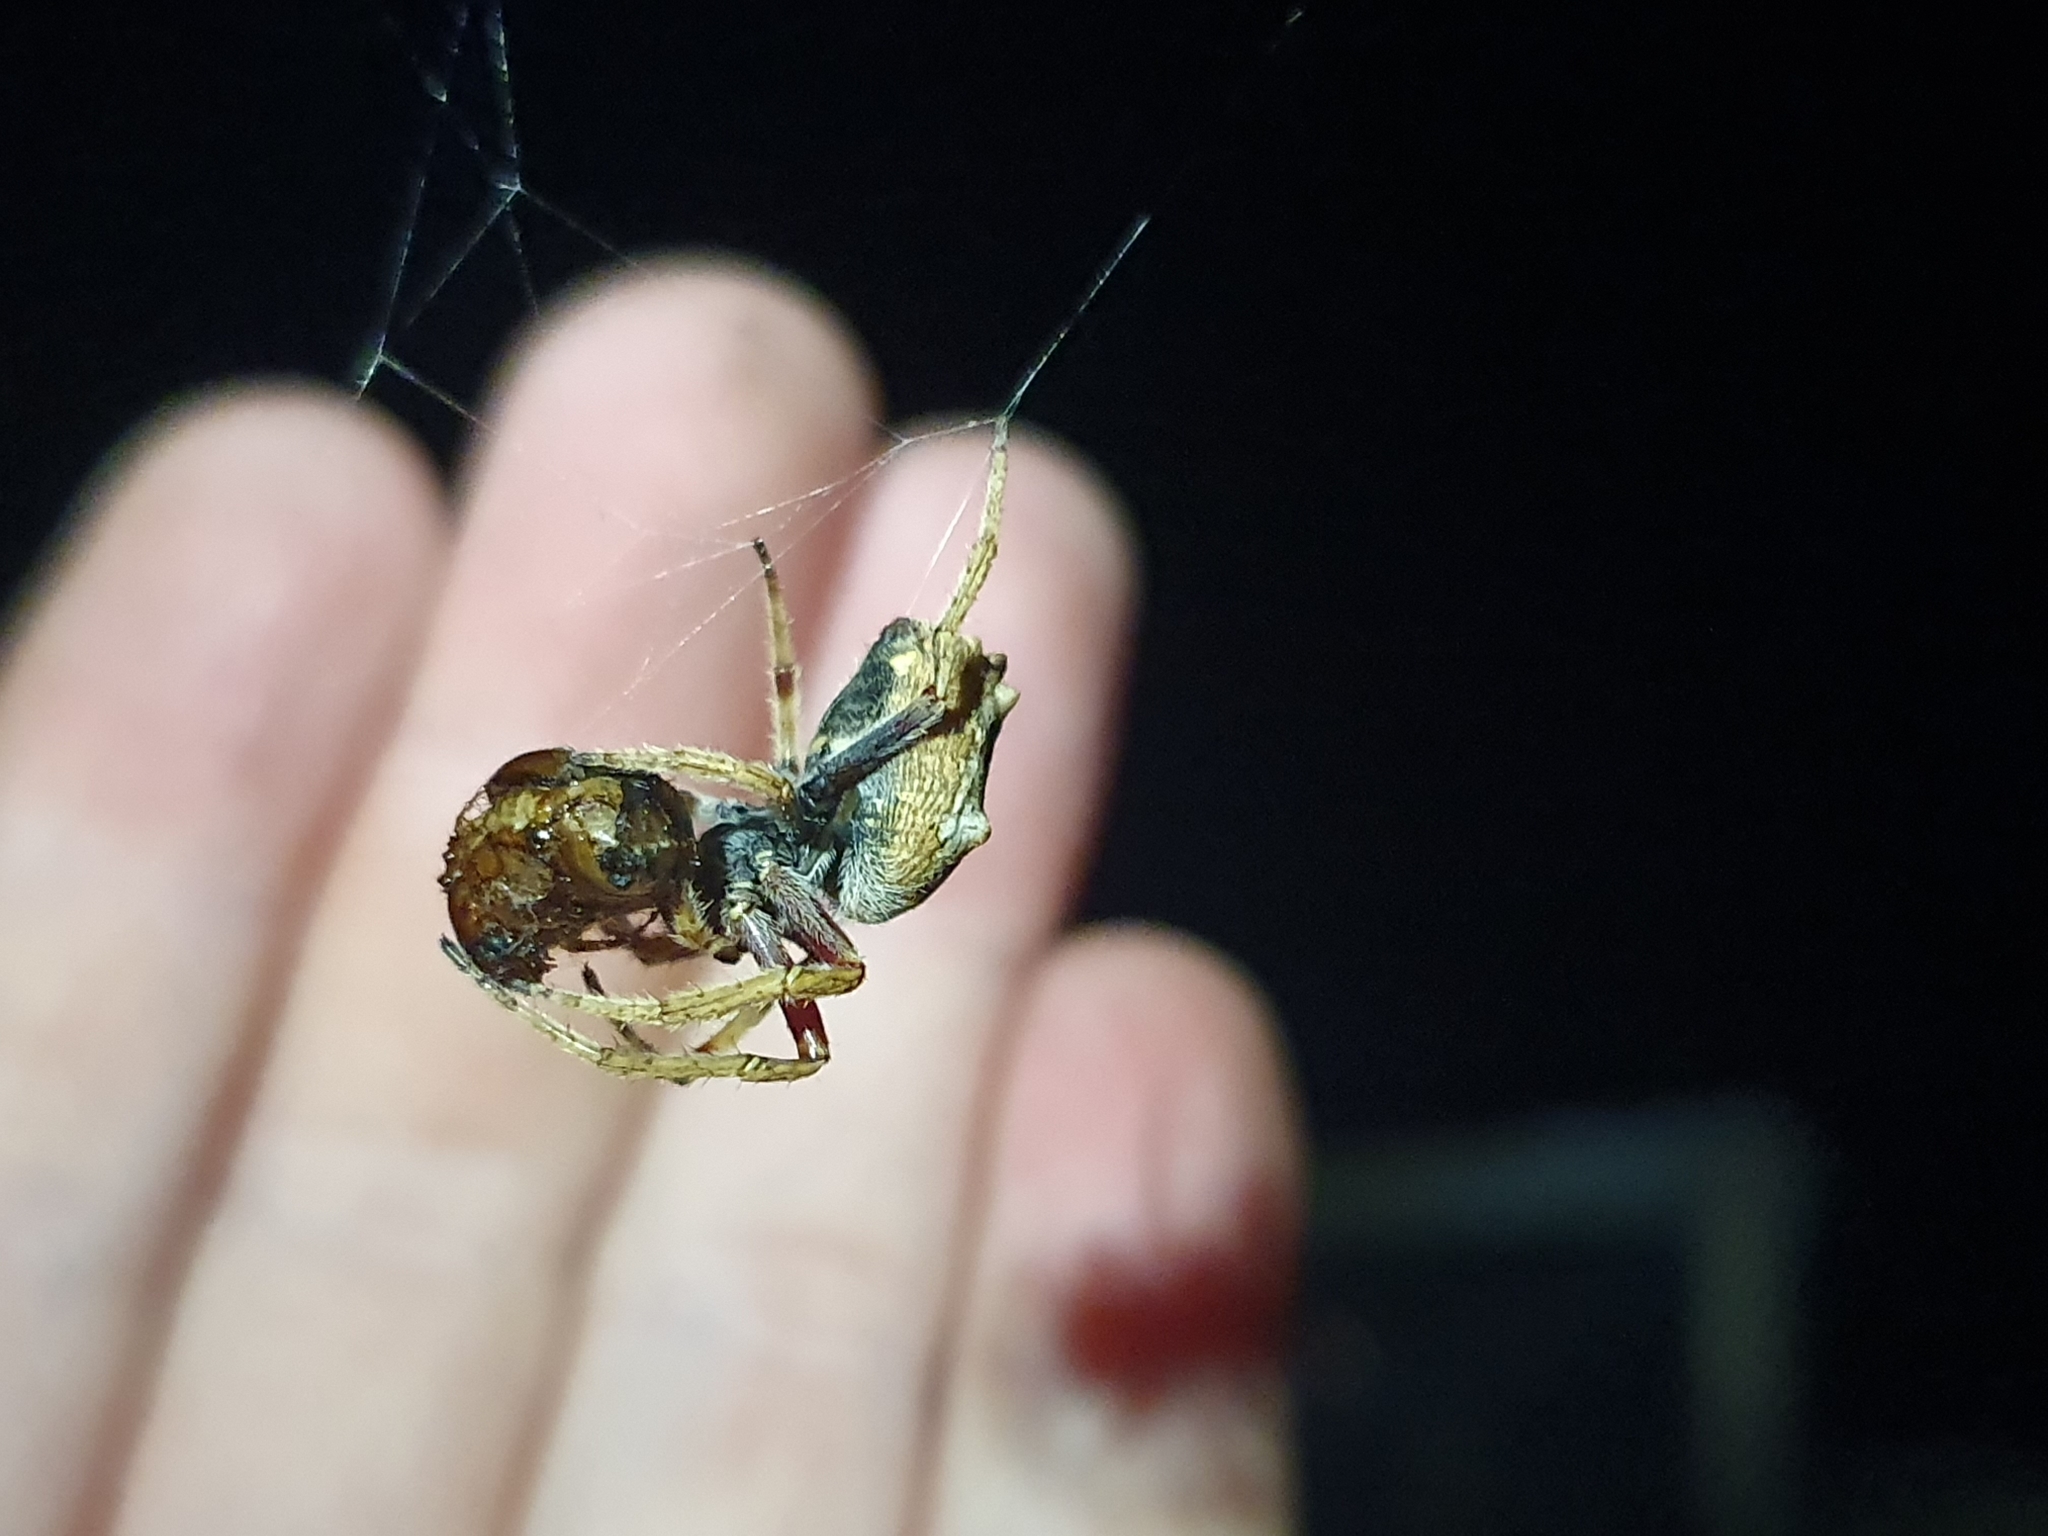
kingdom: Animalia
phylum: Arthropoda
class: Arachnida
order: Araneae
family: Araneidae
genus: Eriophora
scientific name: Eriophora pustulosa
